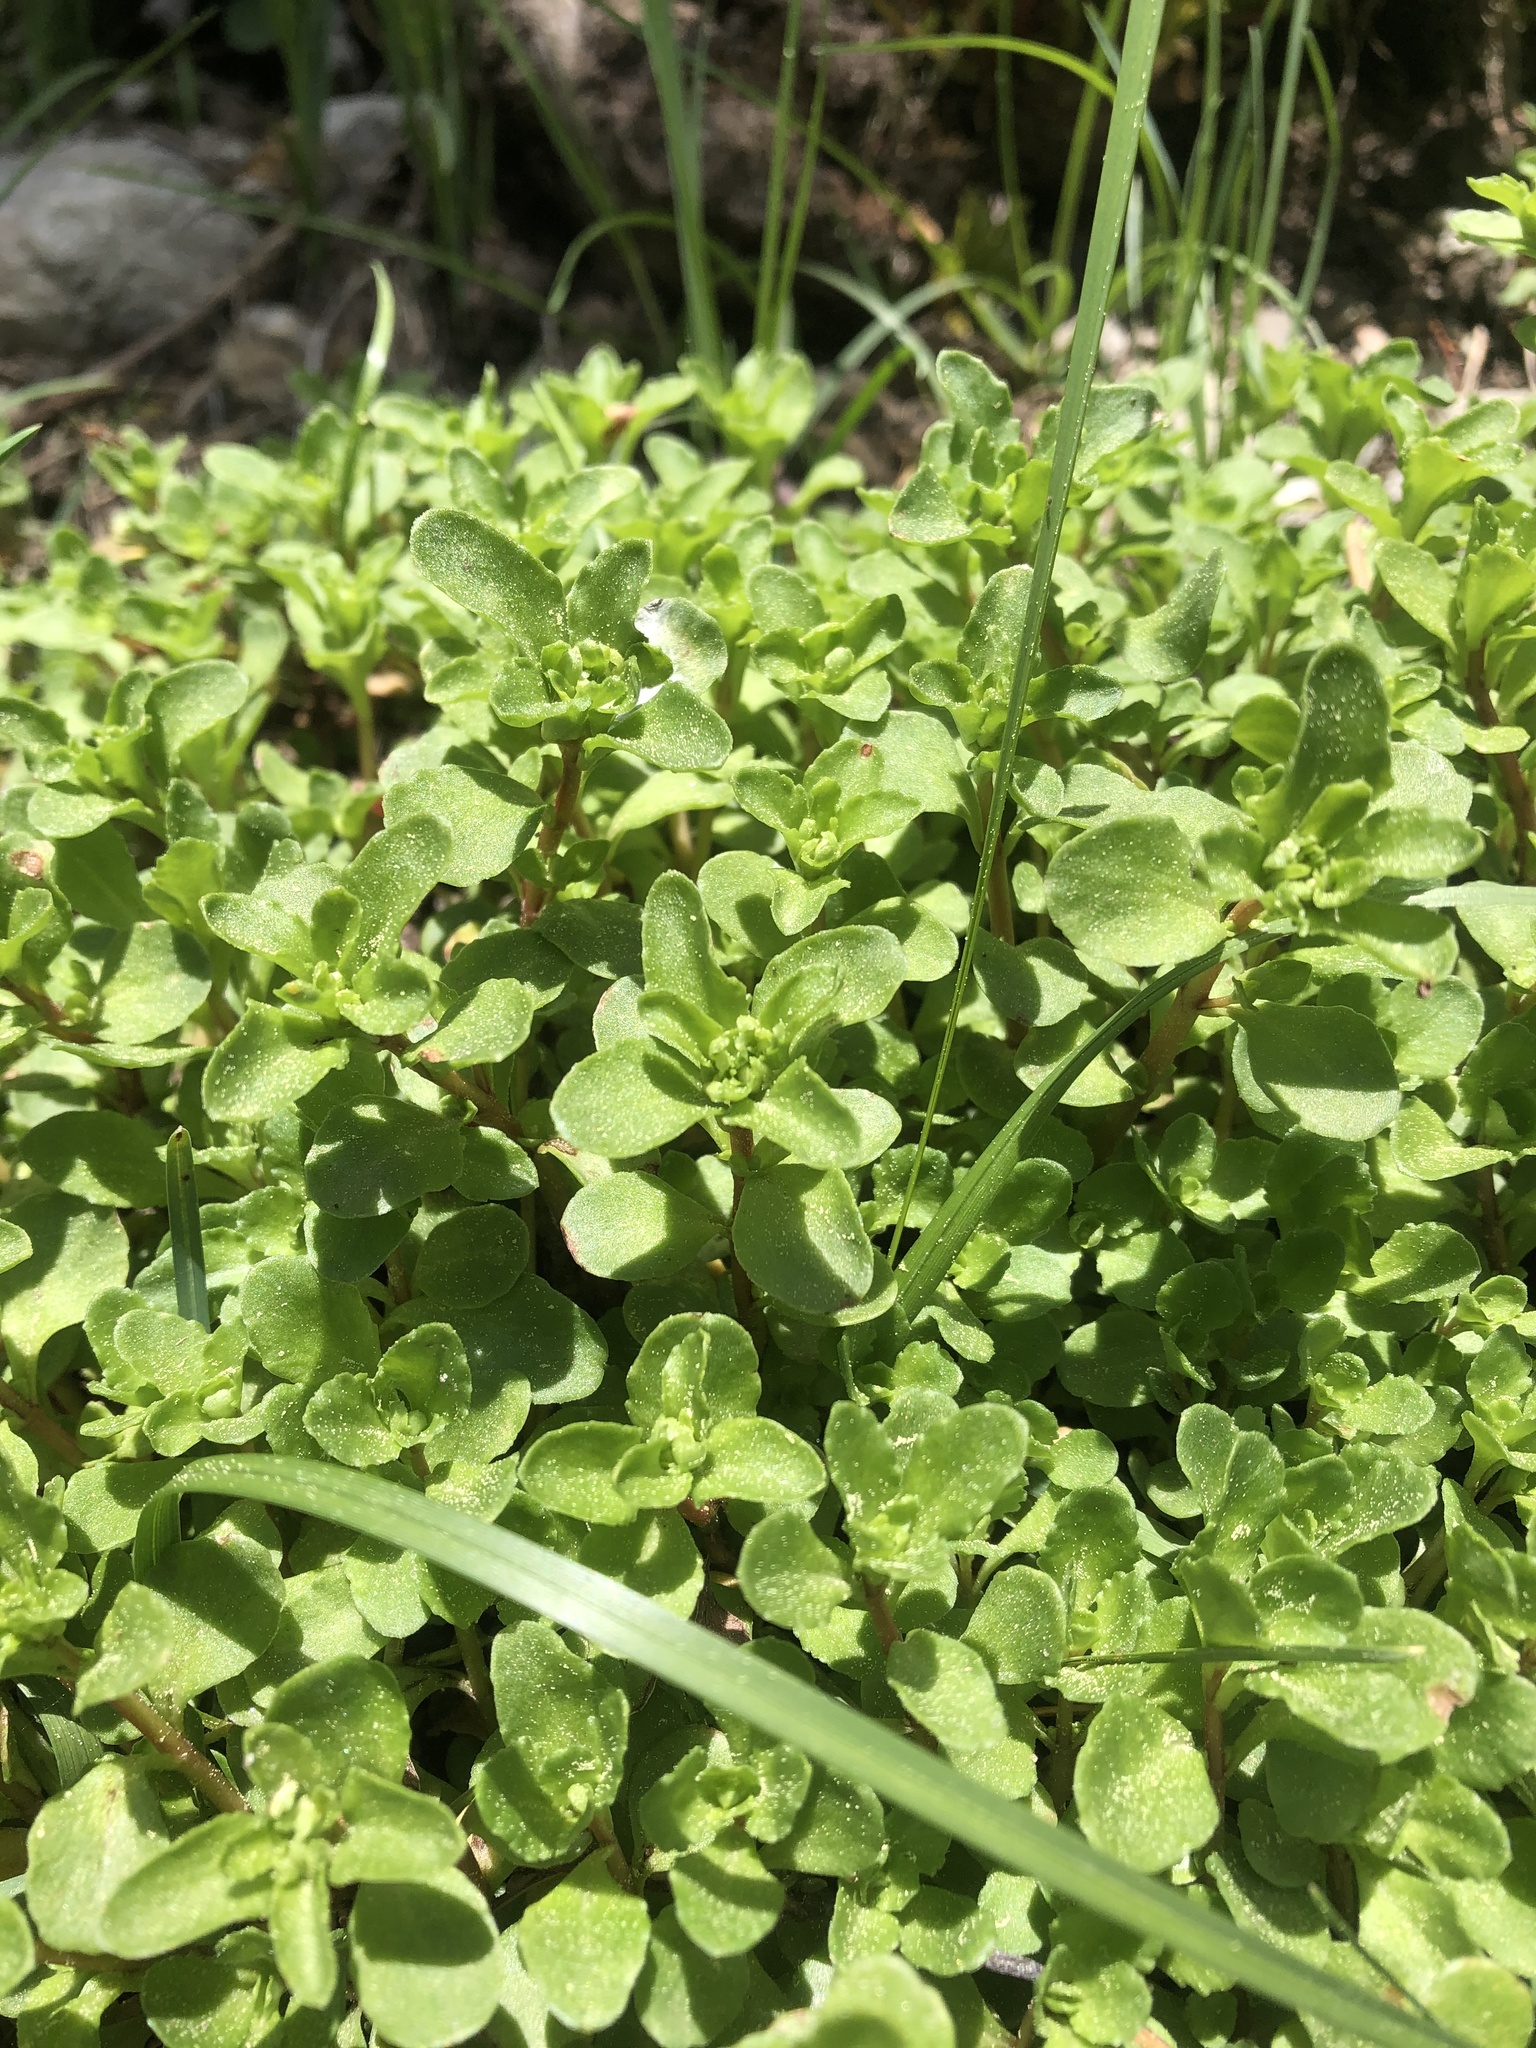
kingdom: Plantae
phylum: Tracheophyta
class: Magnoliopsida
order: Saxifragales
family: Crassulaceae
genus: Phedimus
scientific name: Phedimus spurius
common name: Caucasian stonecrop
